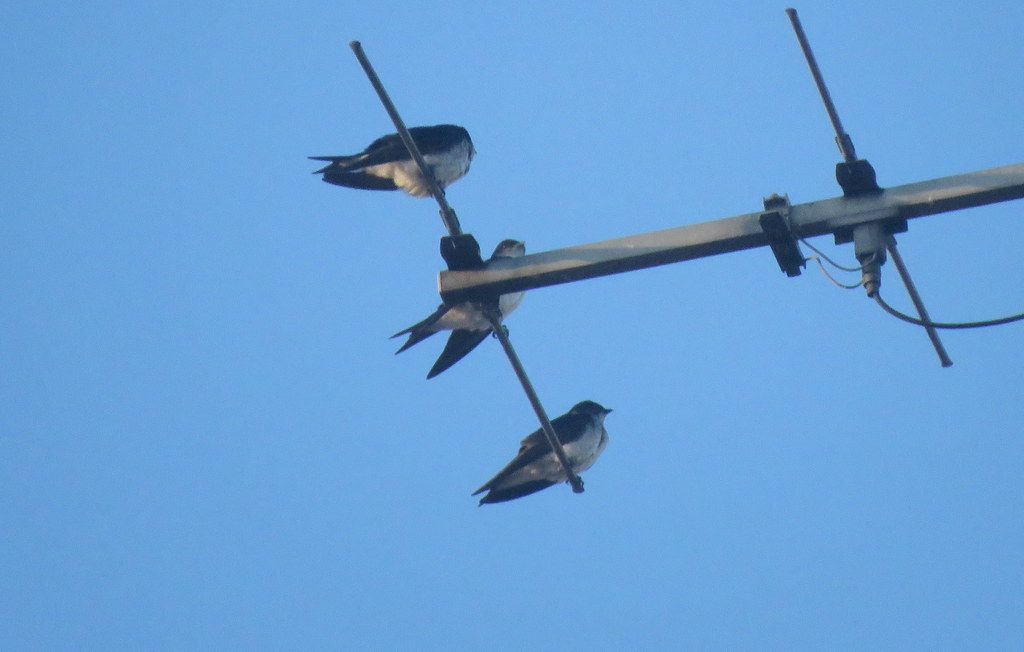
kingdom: Animalia
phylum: Chordata
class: Aves
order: Passeriformes
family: Hirundinidae
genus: Progne
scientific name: Progne chalybea
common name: Grey-breasted martin
